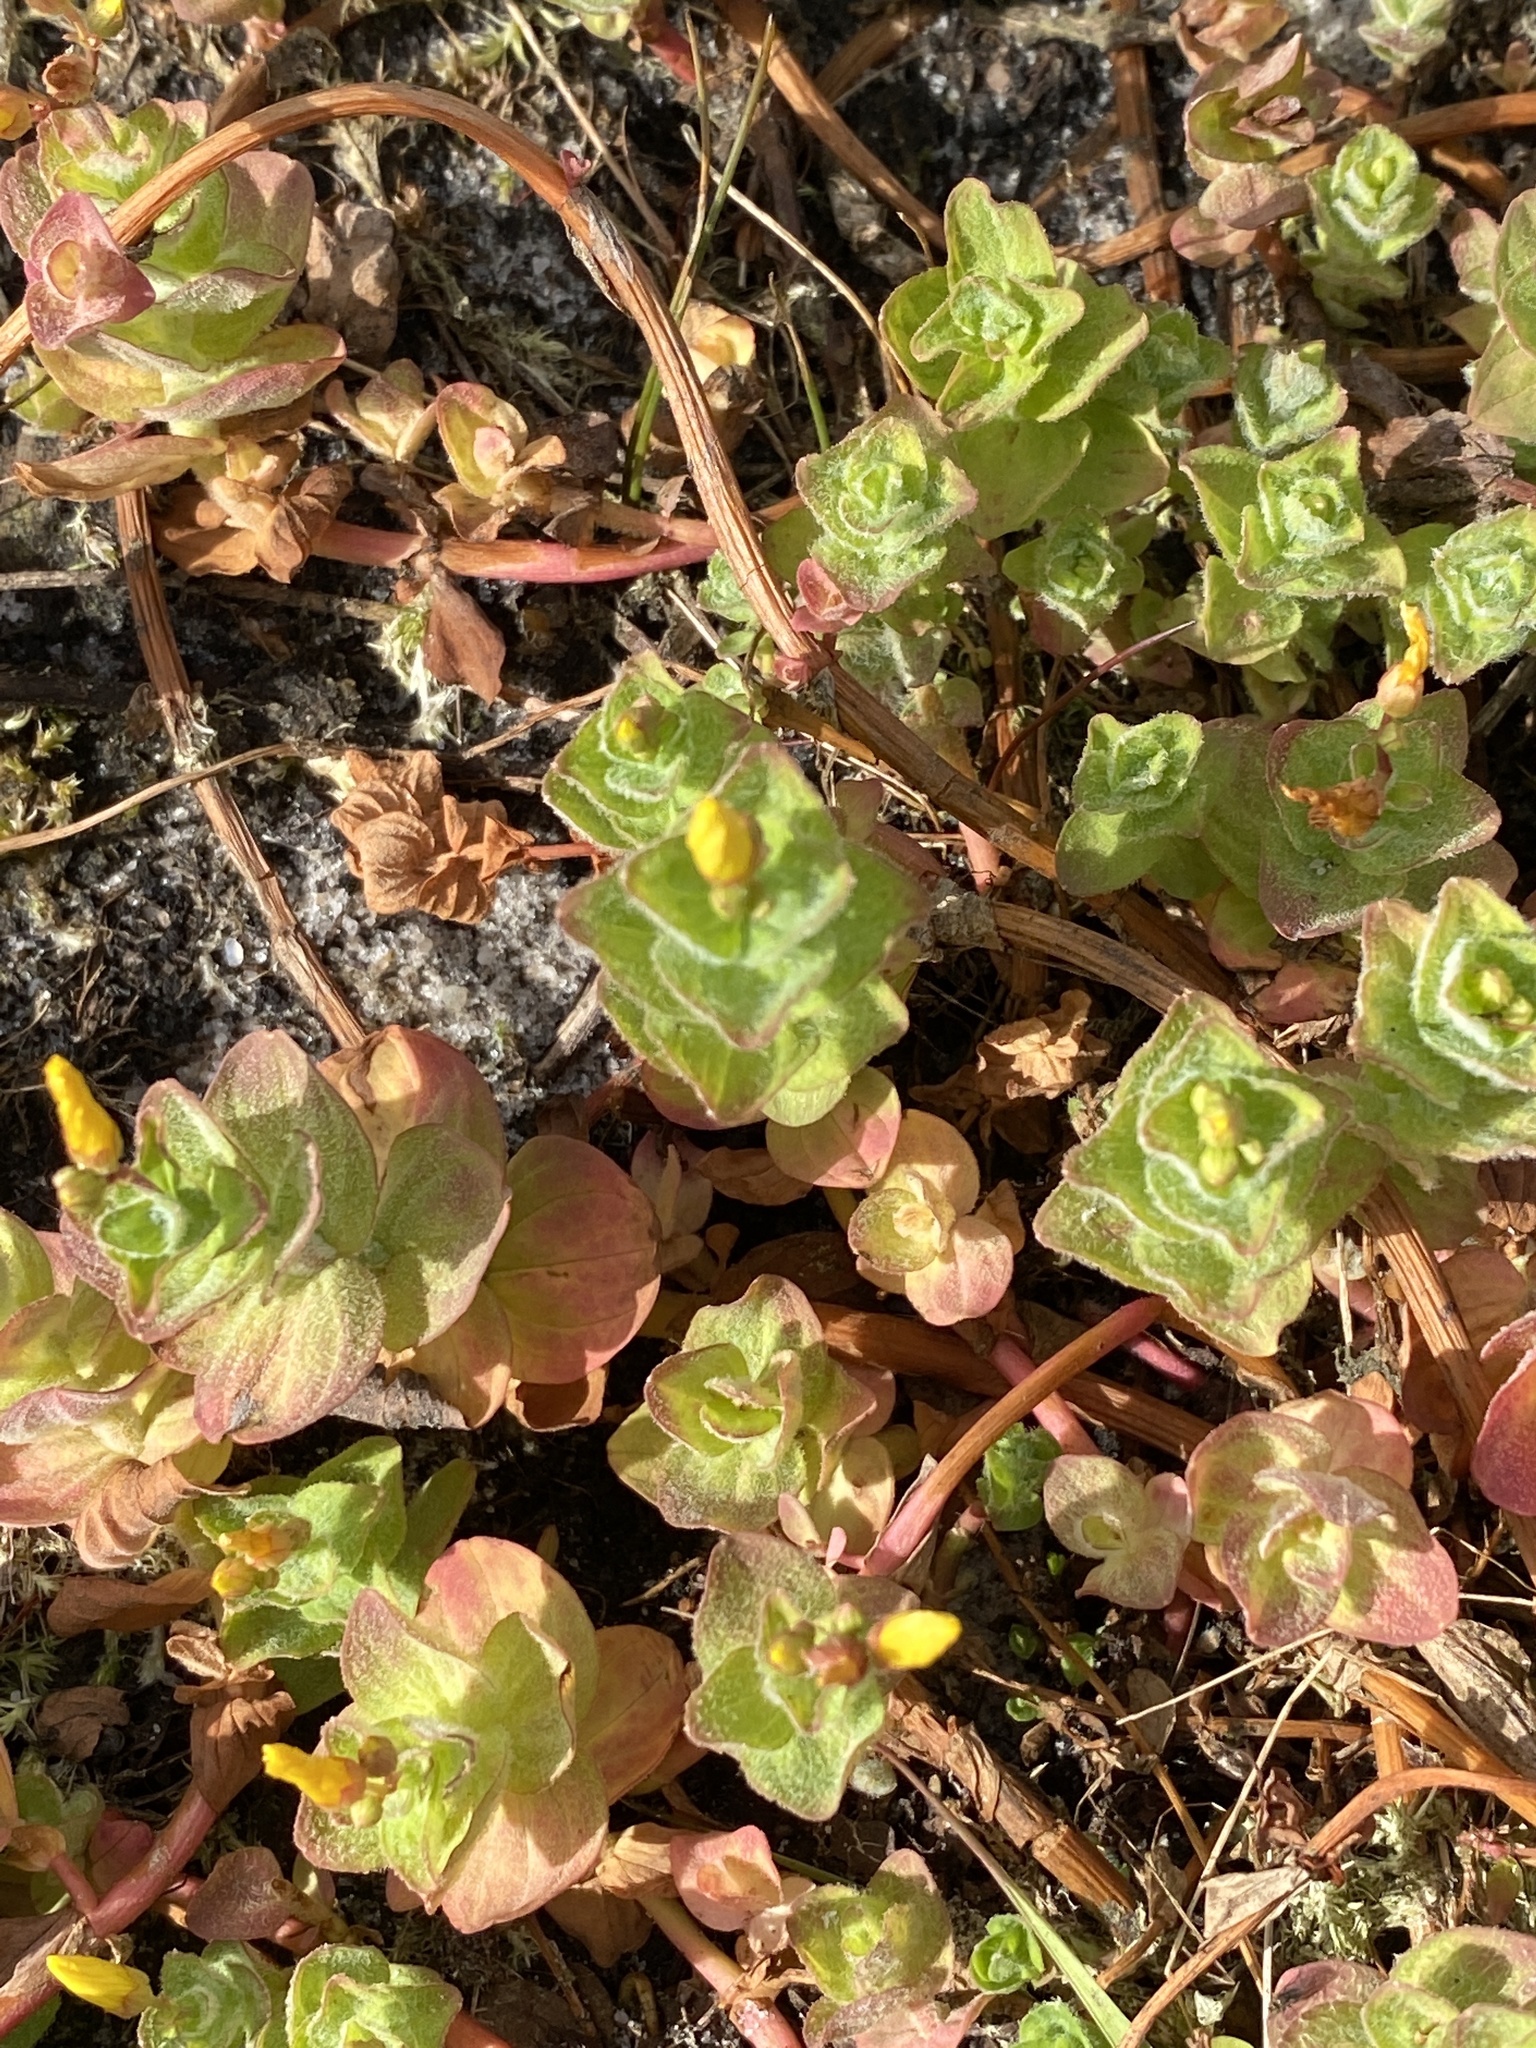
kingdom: Plantae
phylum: Tracheophyta
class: Magnoliopsida
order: Malpighiales
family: Hypericaceae
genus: Hypericum
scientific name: Hypericum elodes
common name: Marsh st. john's-wort
